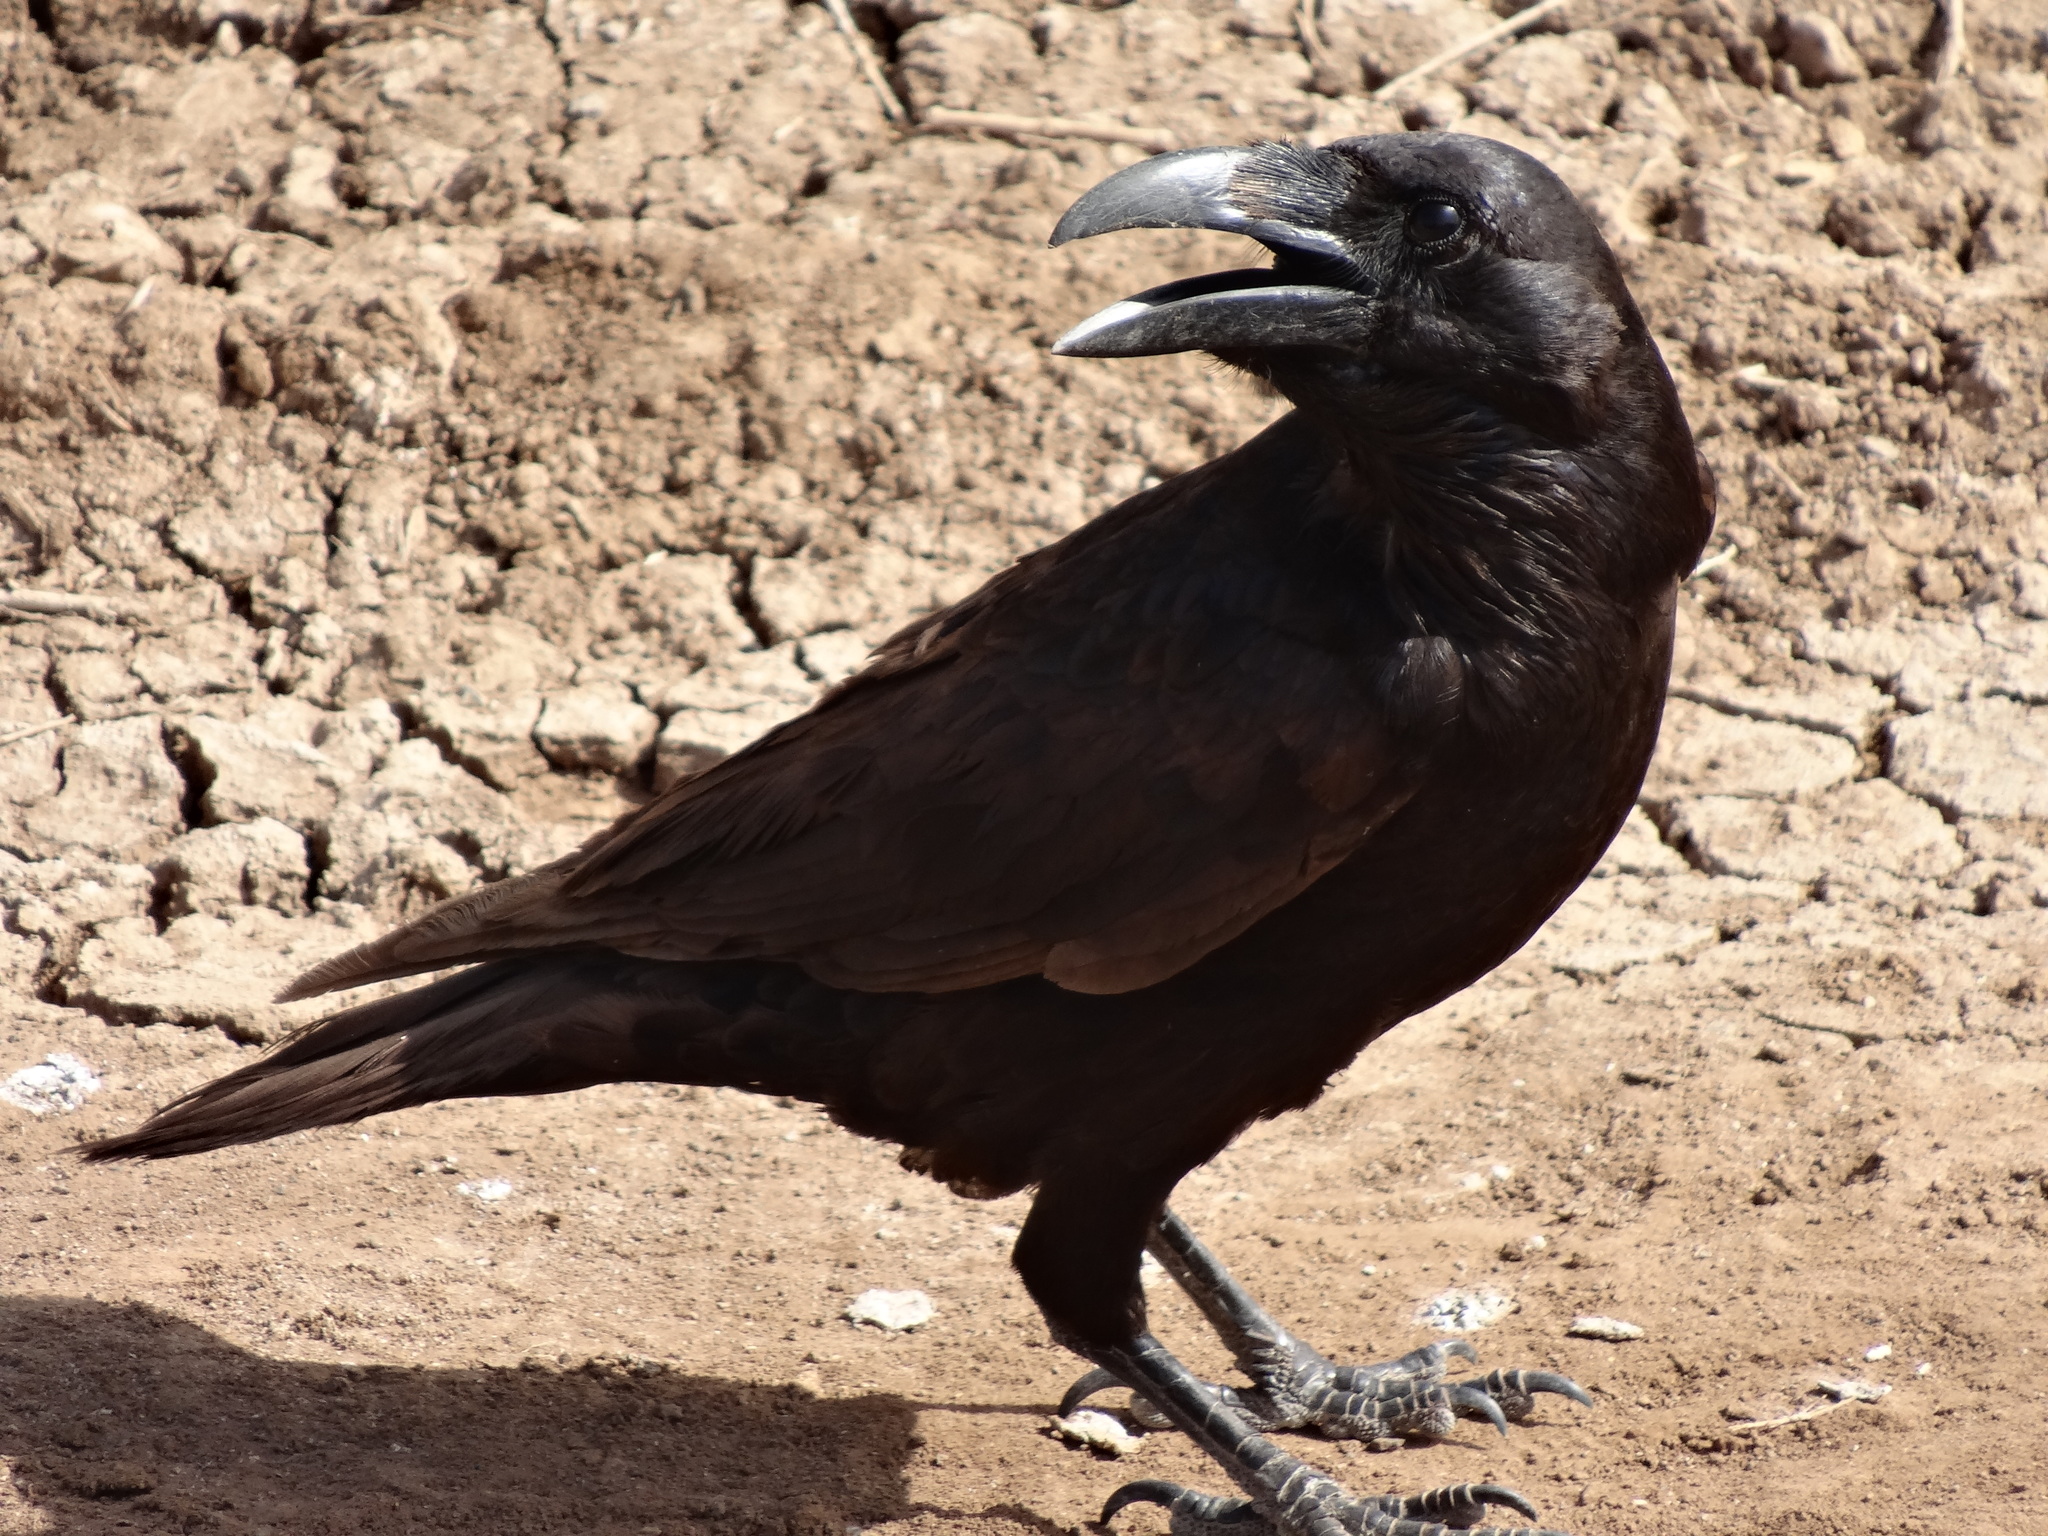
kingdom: Animalia
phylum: Chordata
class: Aves
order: Passeriformes
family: Corvidae
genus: Corvus
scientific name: Corvus corax
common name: Common raven
